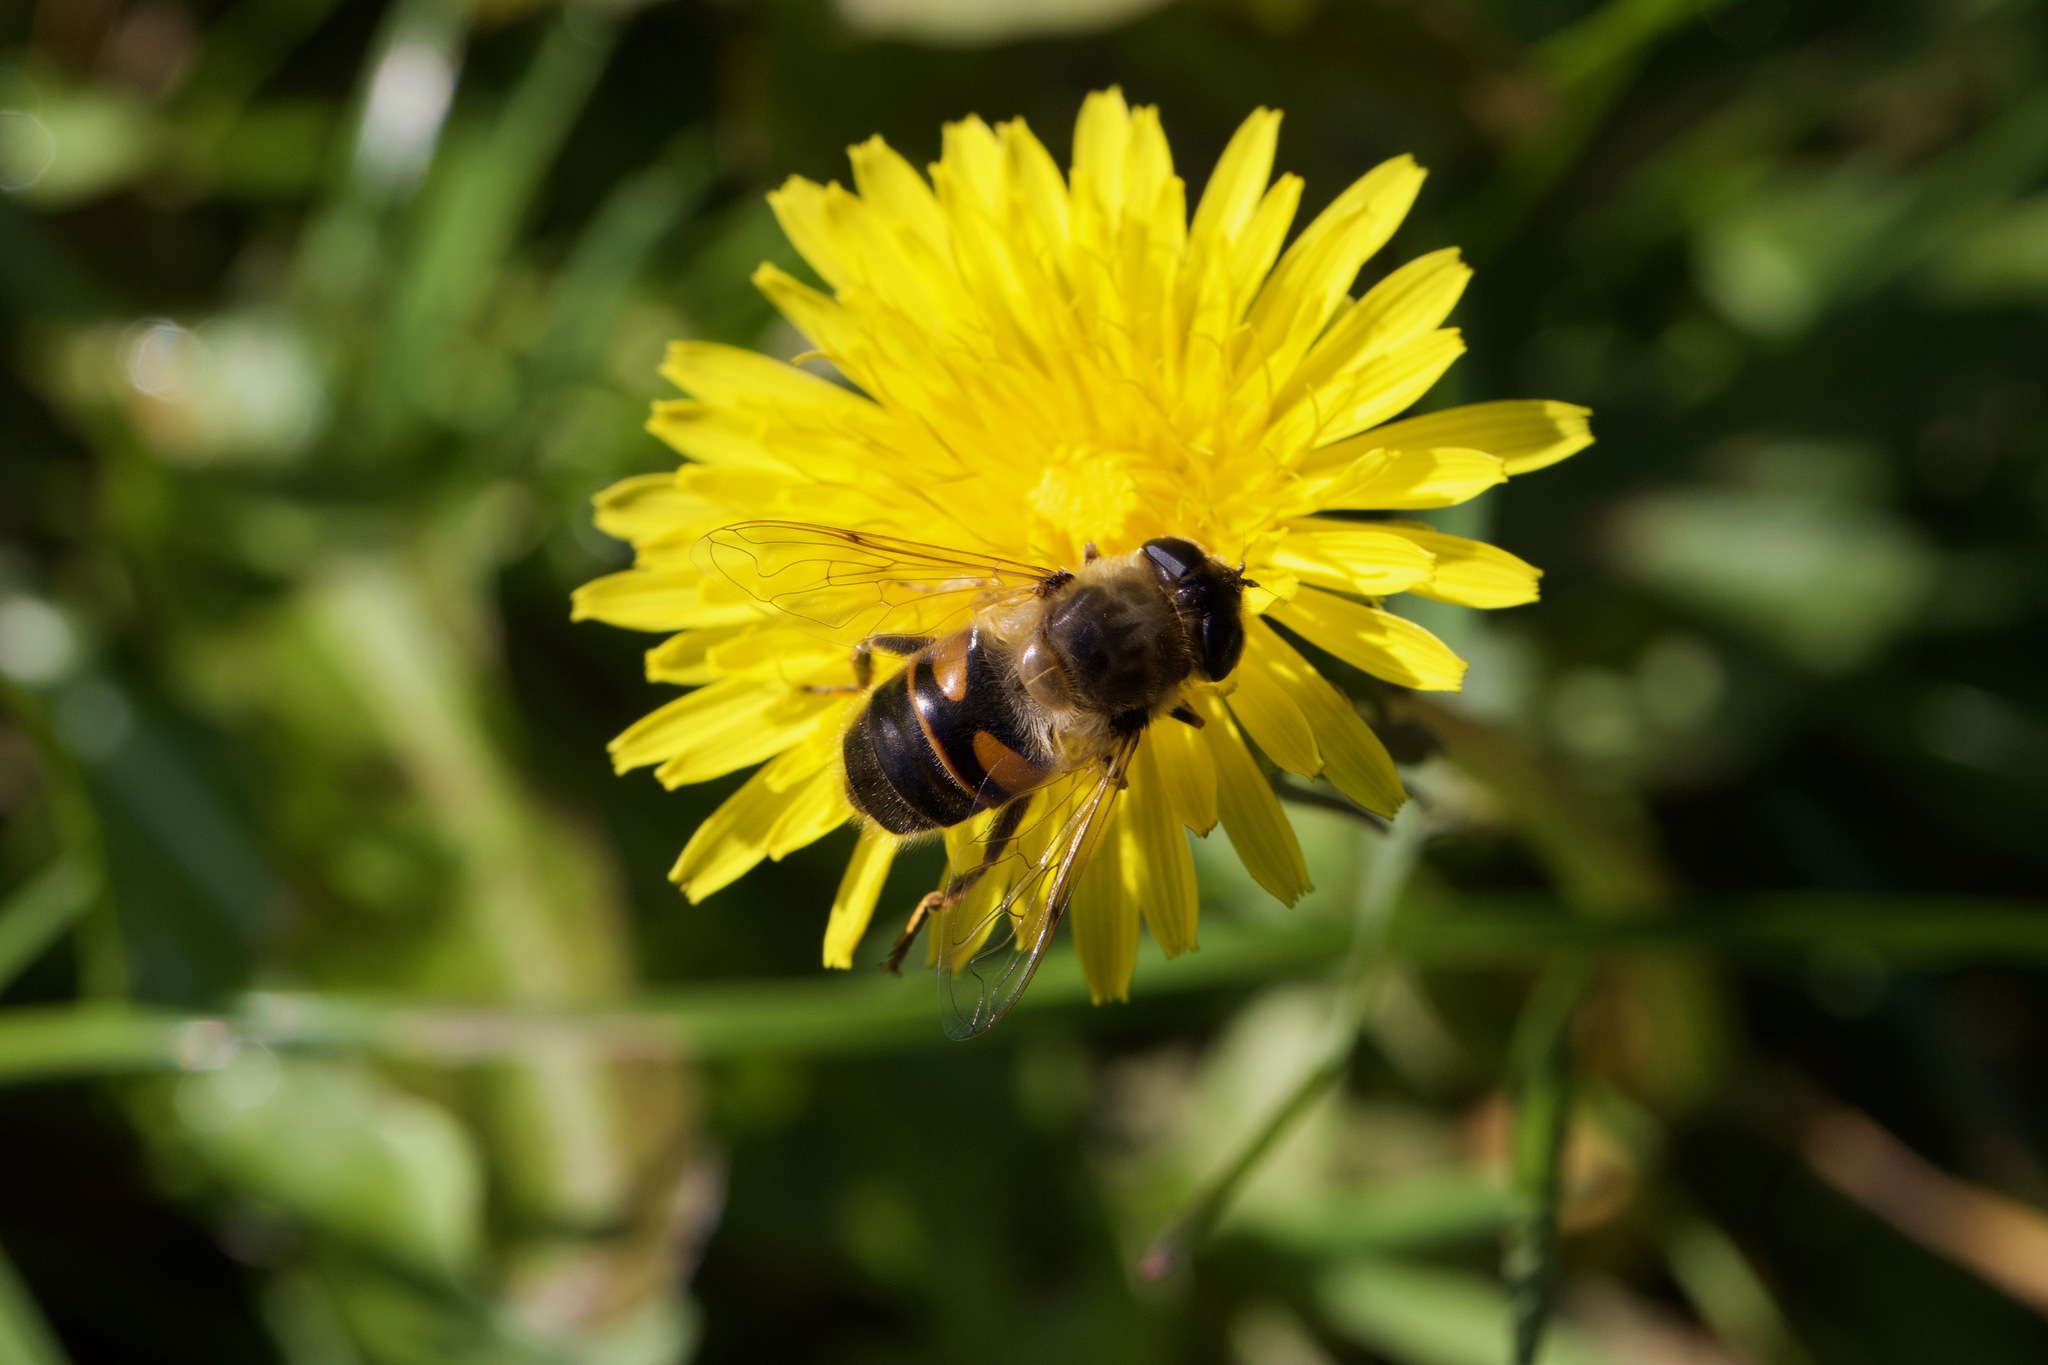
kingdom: Animalia
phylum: Arthropoda
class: Insecta
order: Diptera
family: Syrphidae
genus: Eristalis
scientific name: Eristalis tenax
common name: Drone fly
